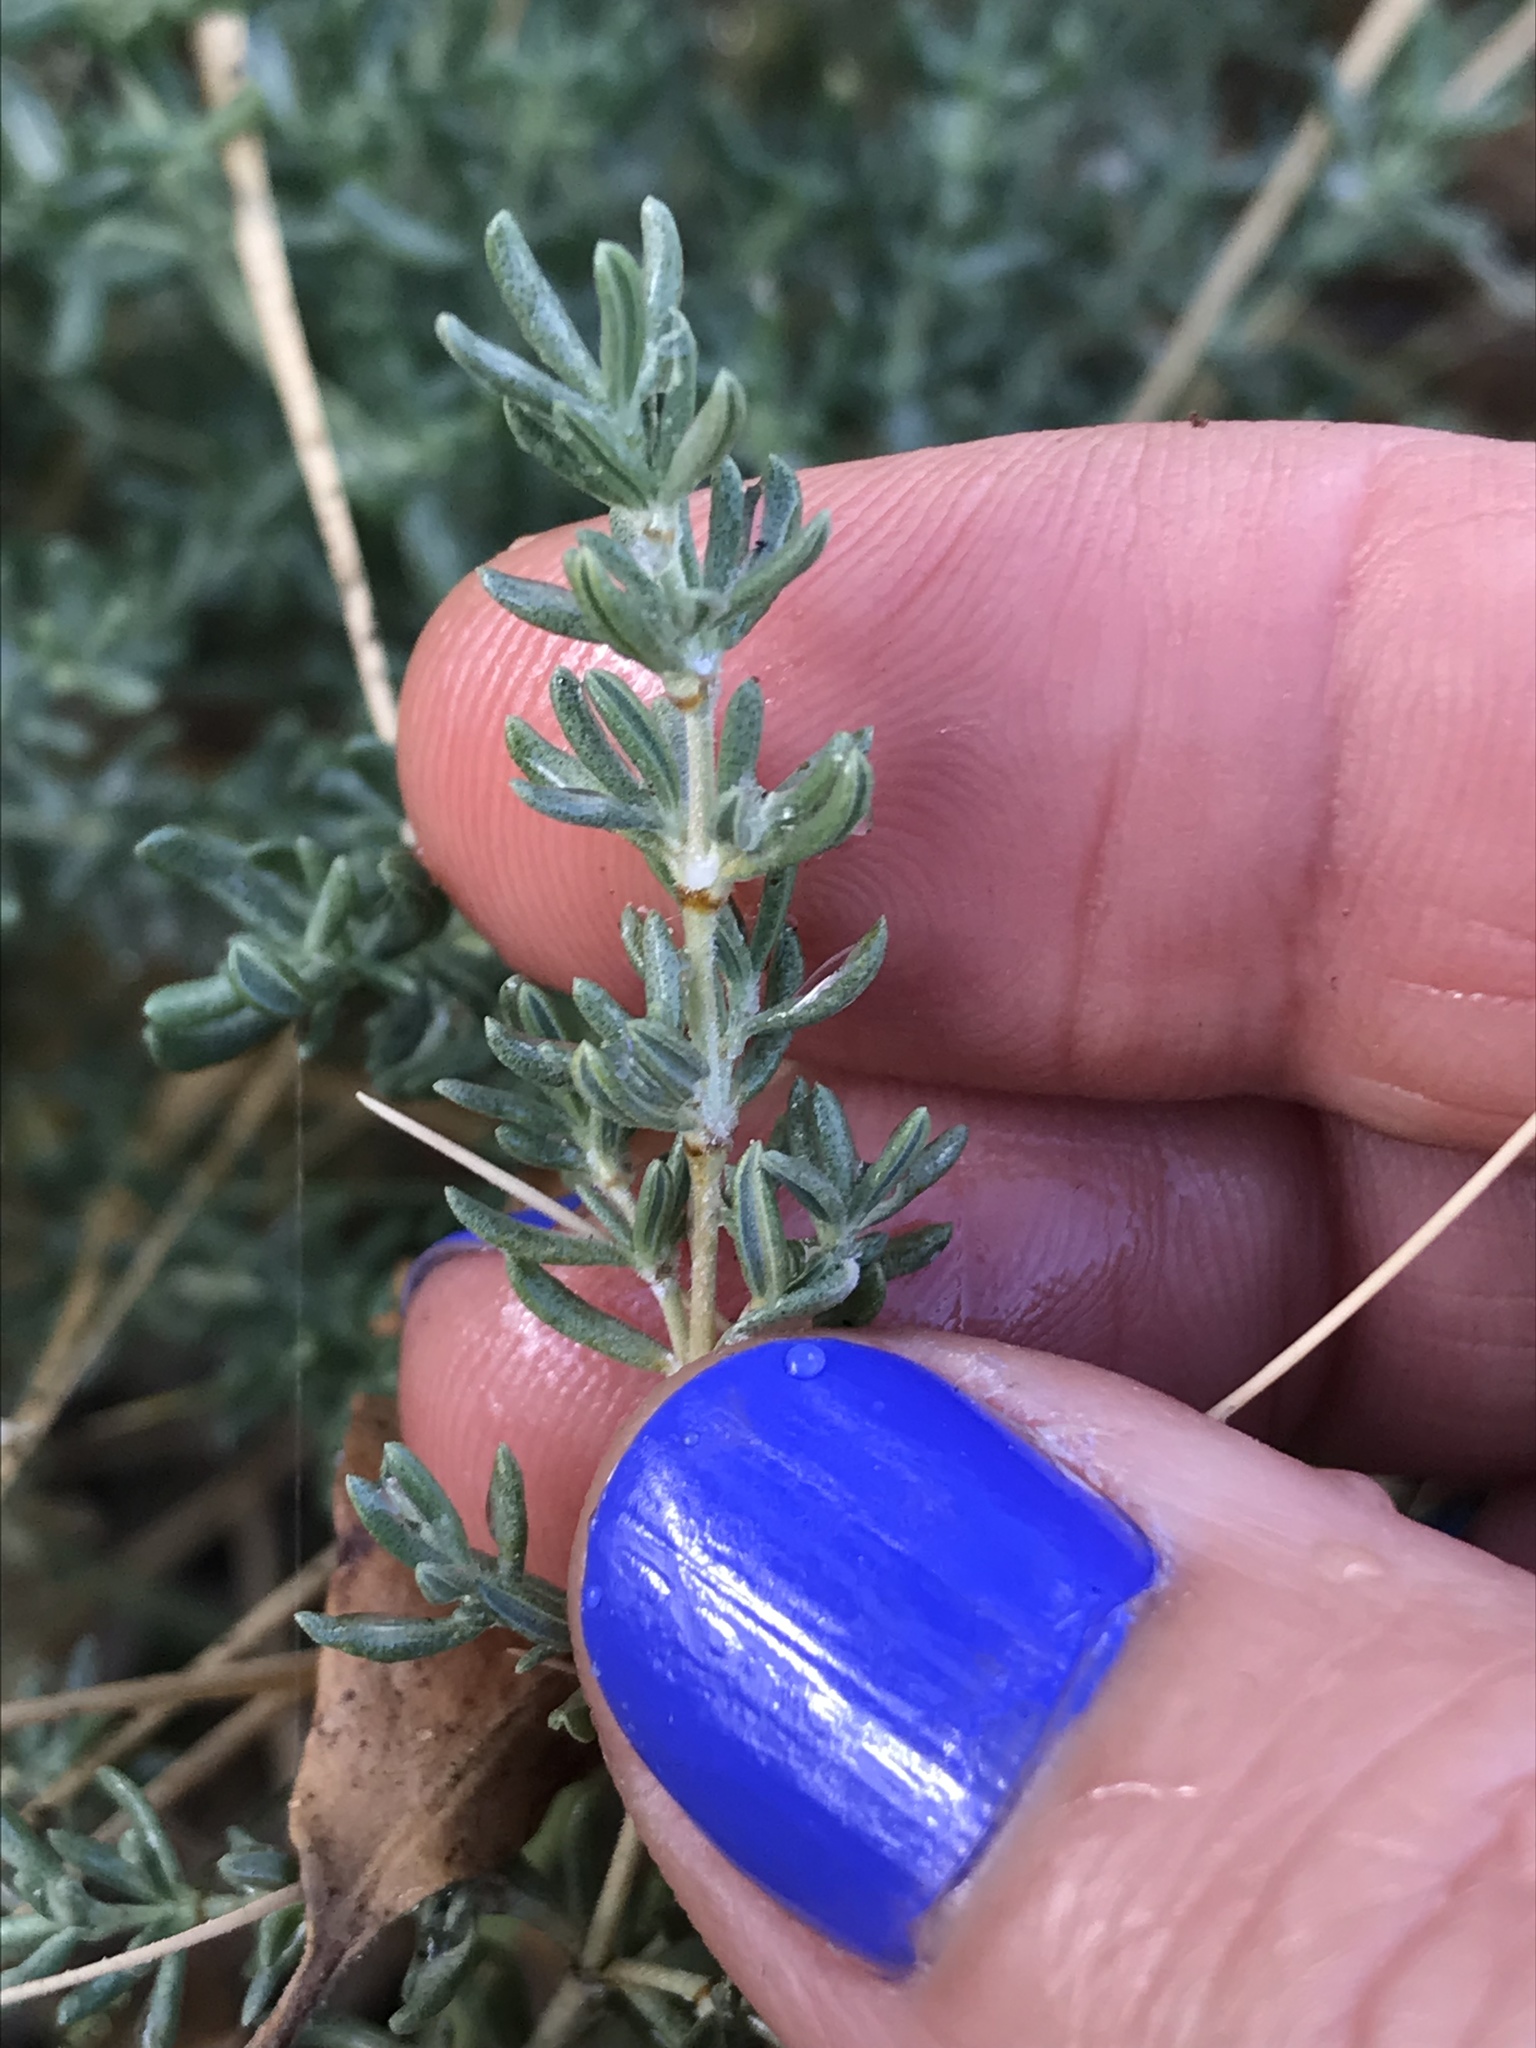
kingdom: Plantae
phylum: Tracheophyta
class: Magnoliopsida
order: Caryophyllales
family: Frankeniaceae
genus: Frankenia
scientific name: Frankenia salina
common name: Alkali seaheath
